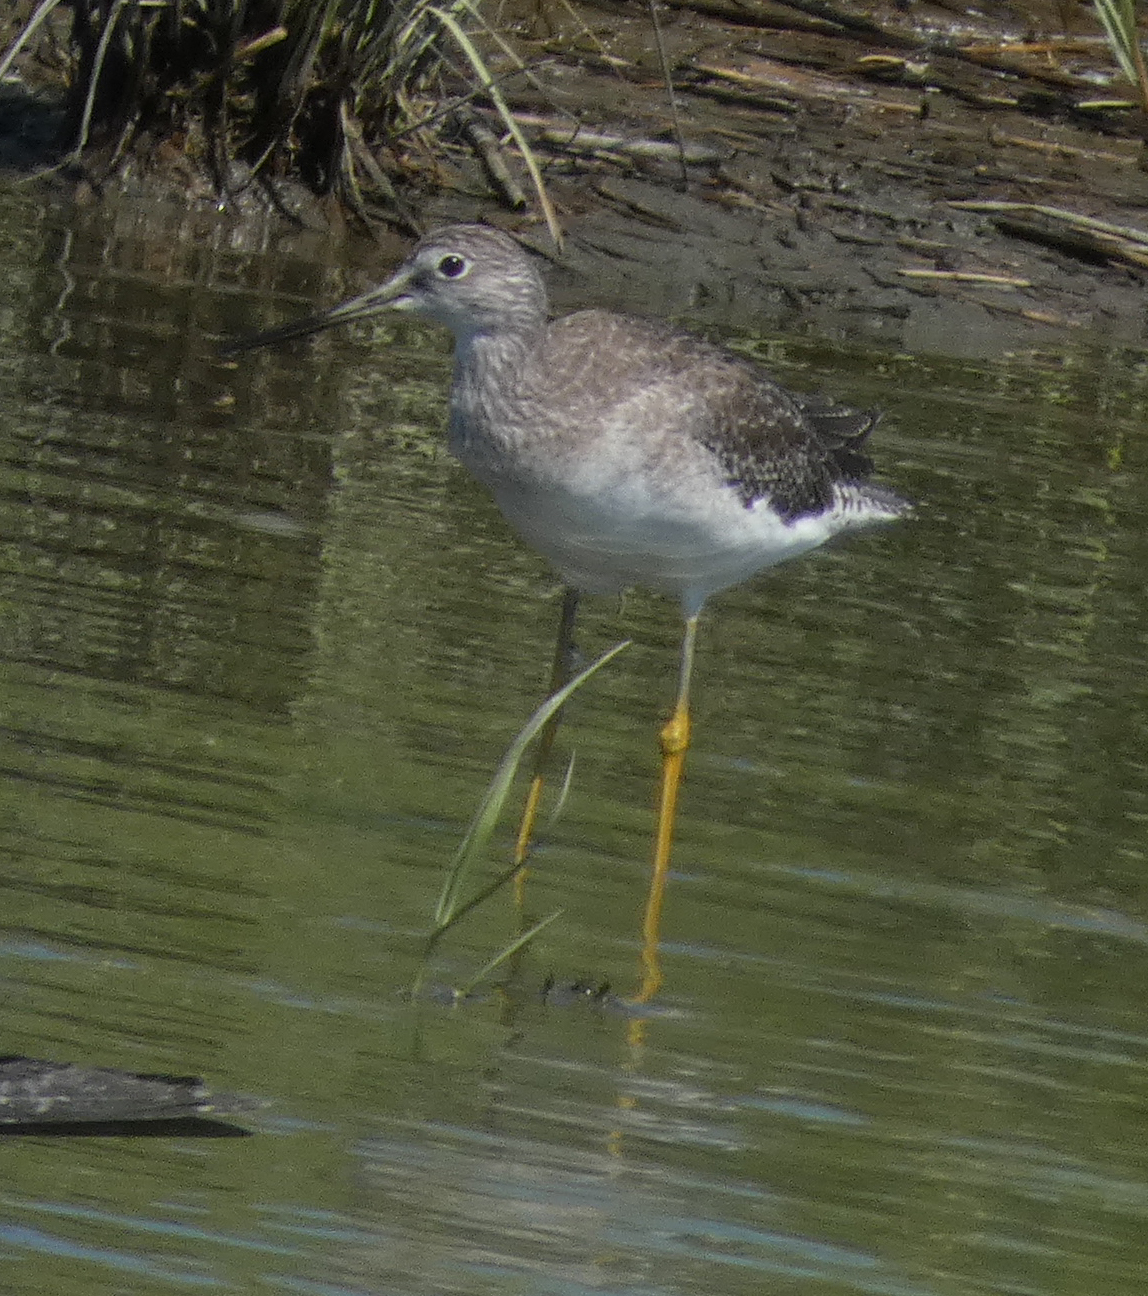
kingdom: Animalia
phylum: Chordata
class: Aves
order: Charadriiformes
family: Scolopacidae
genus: Tringa
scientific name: Tringa melanoleuca
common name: Greater yellowlegs
